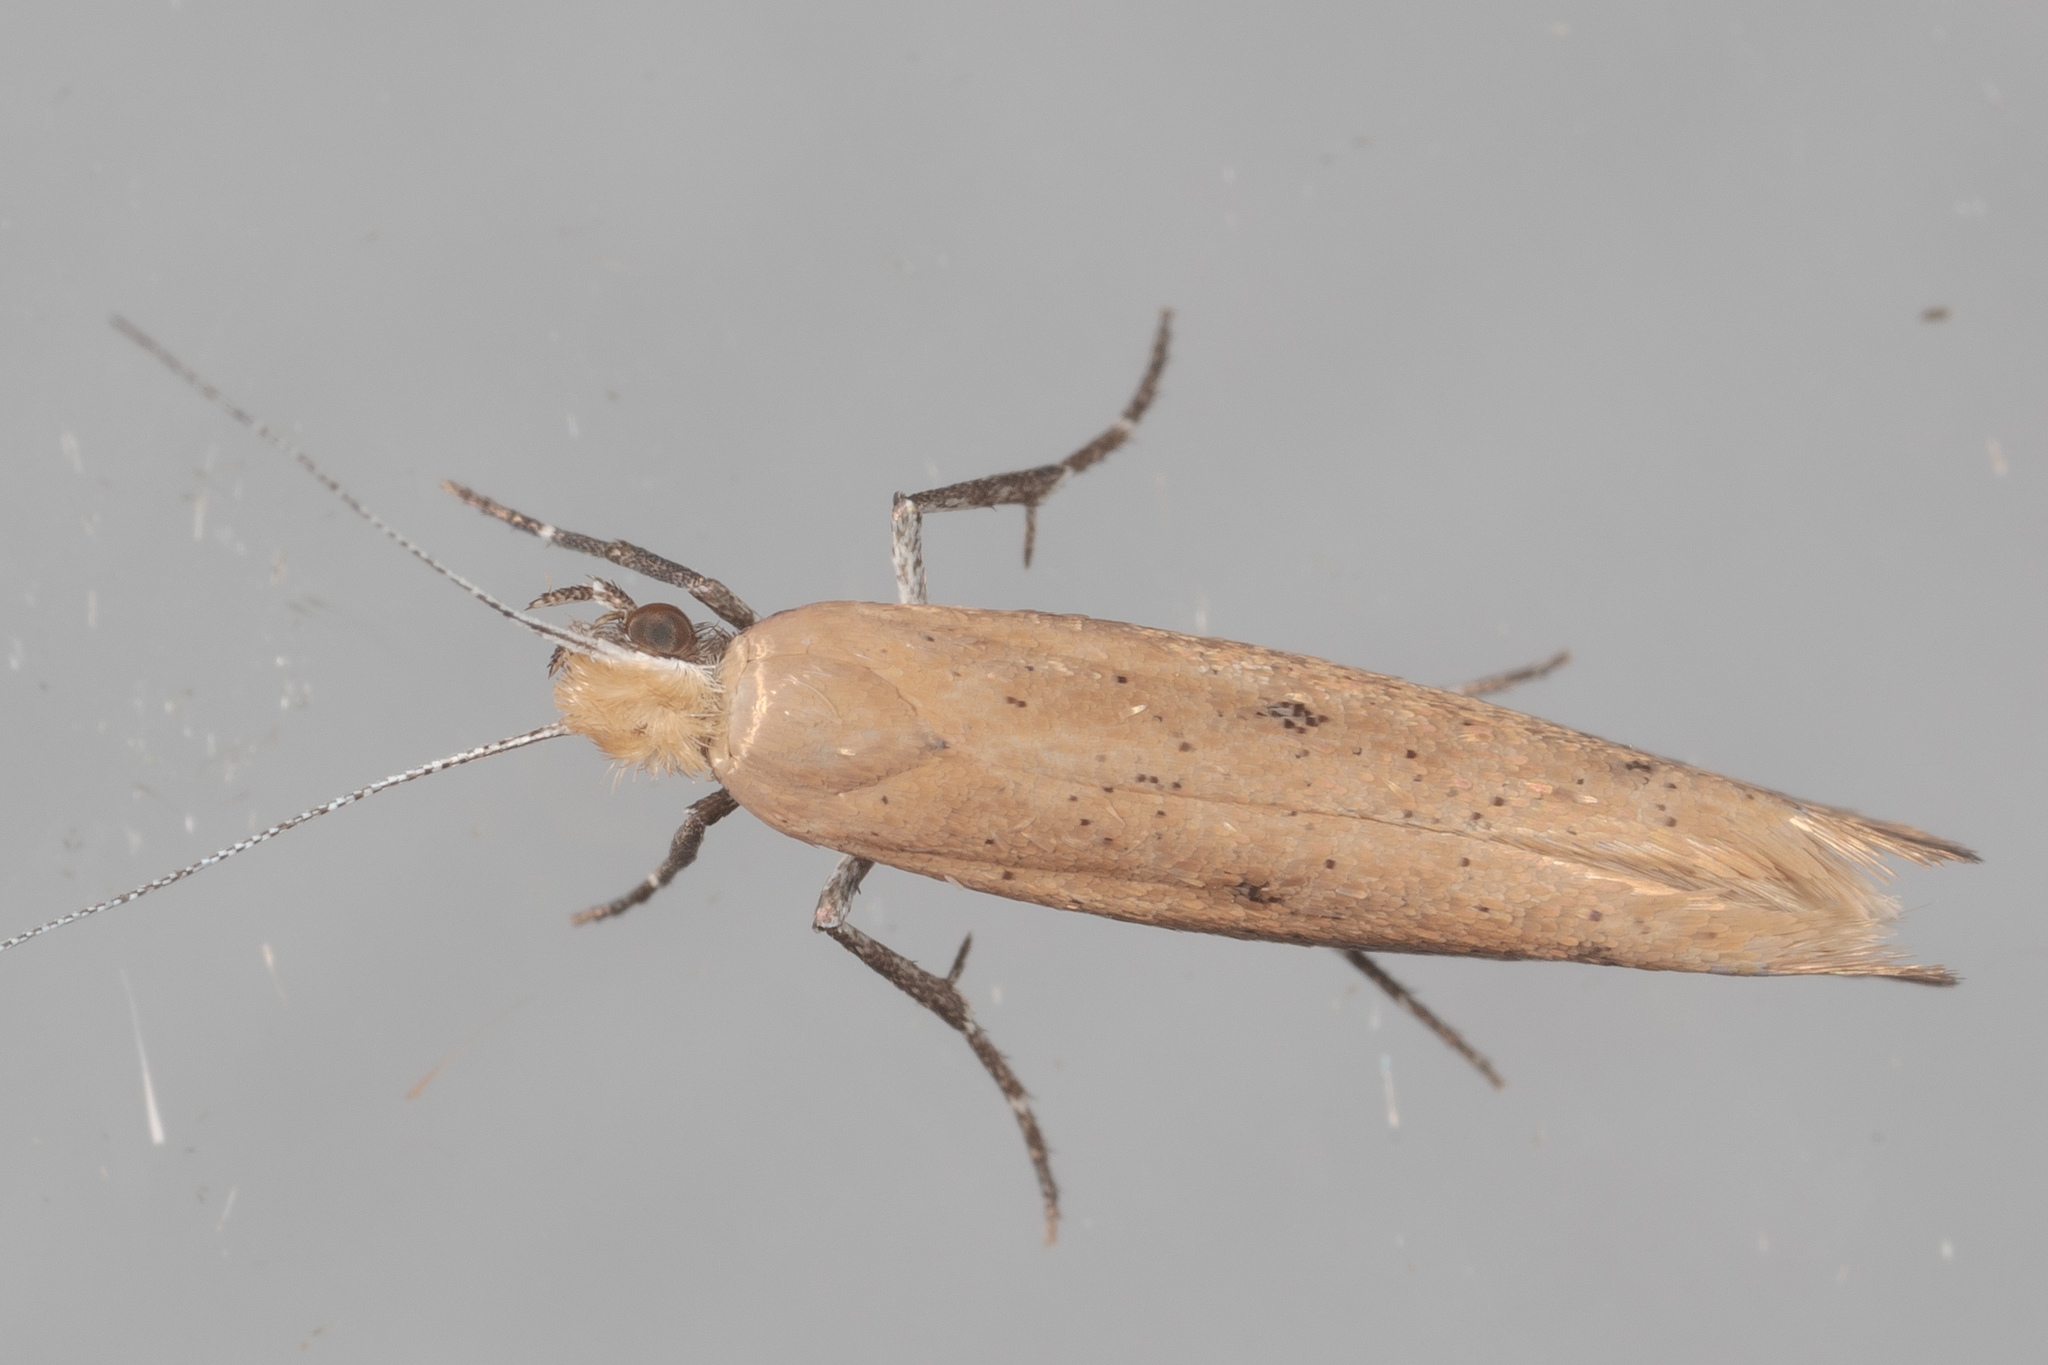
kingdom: Animalia
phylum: Arthropoda
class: Insecta
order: Lepidoptera
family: Ypsolophidae
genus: Ypsolopha
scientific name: Ypsolopha
